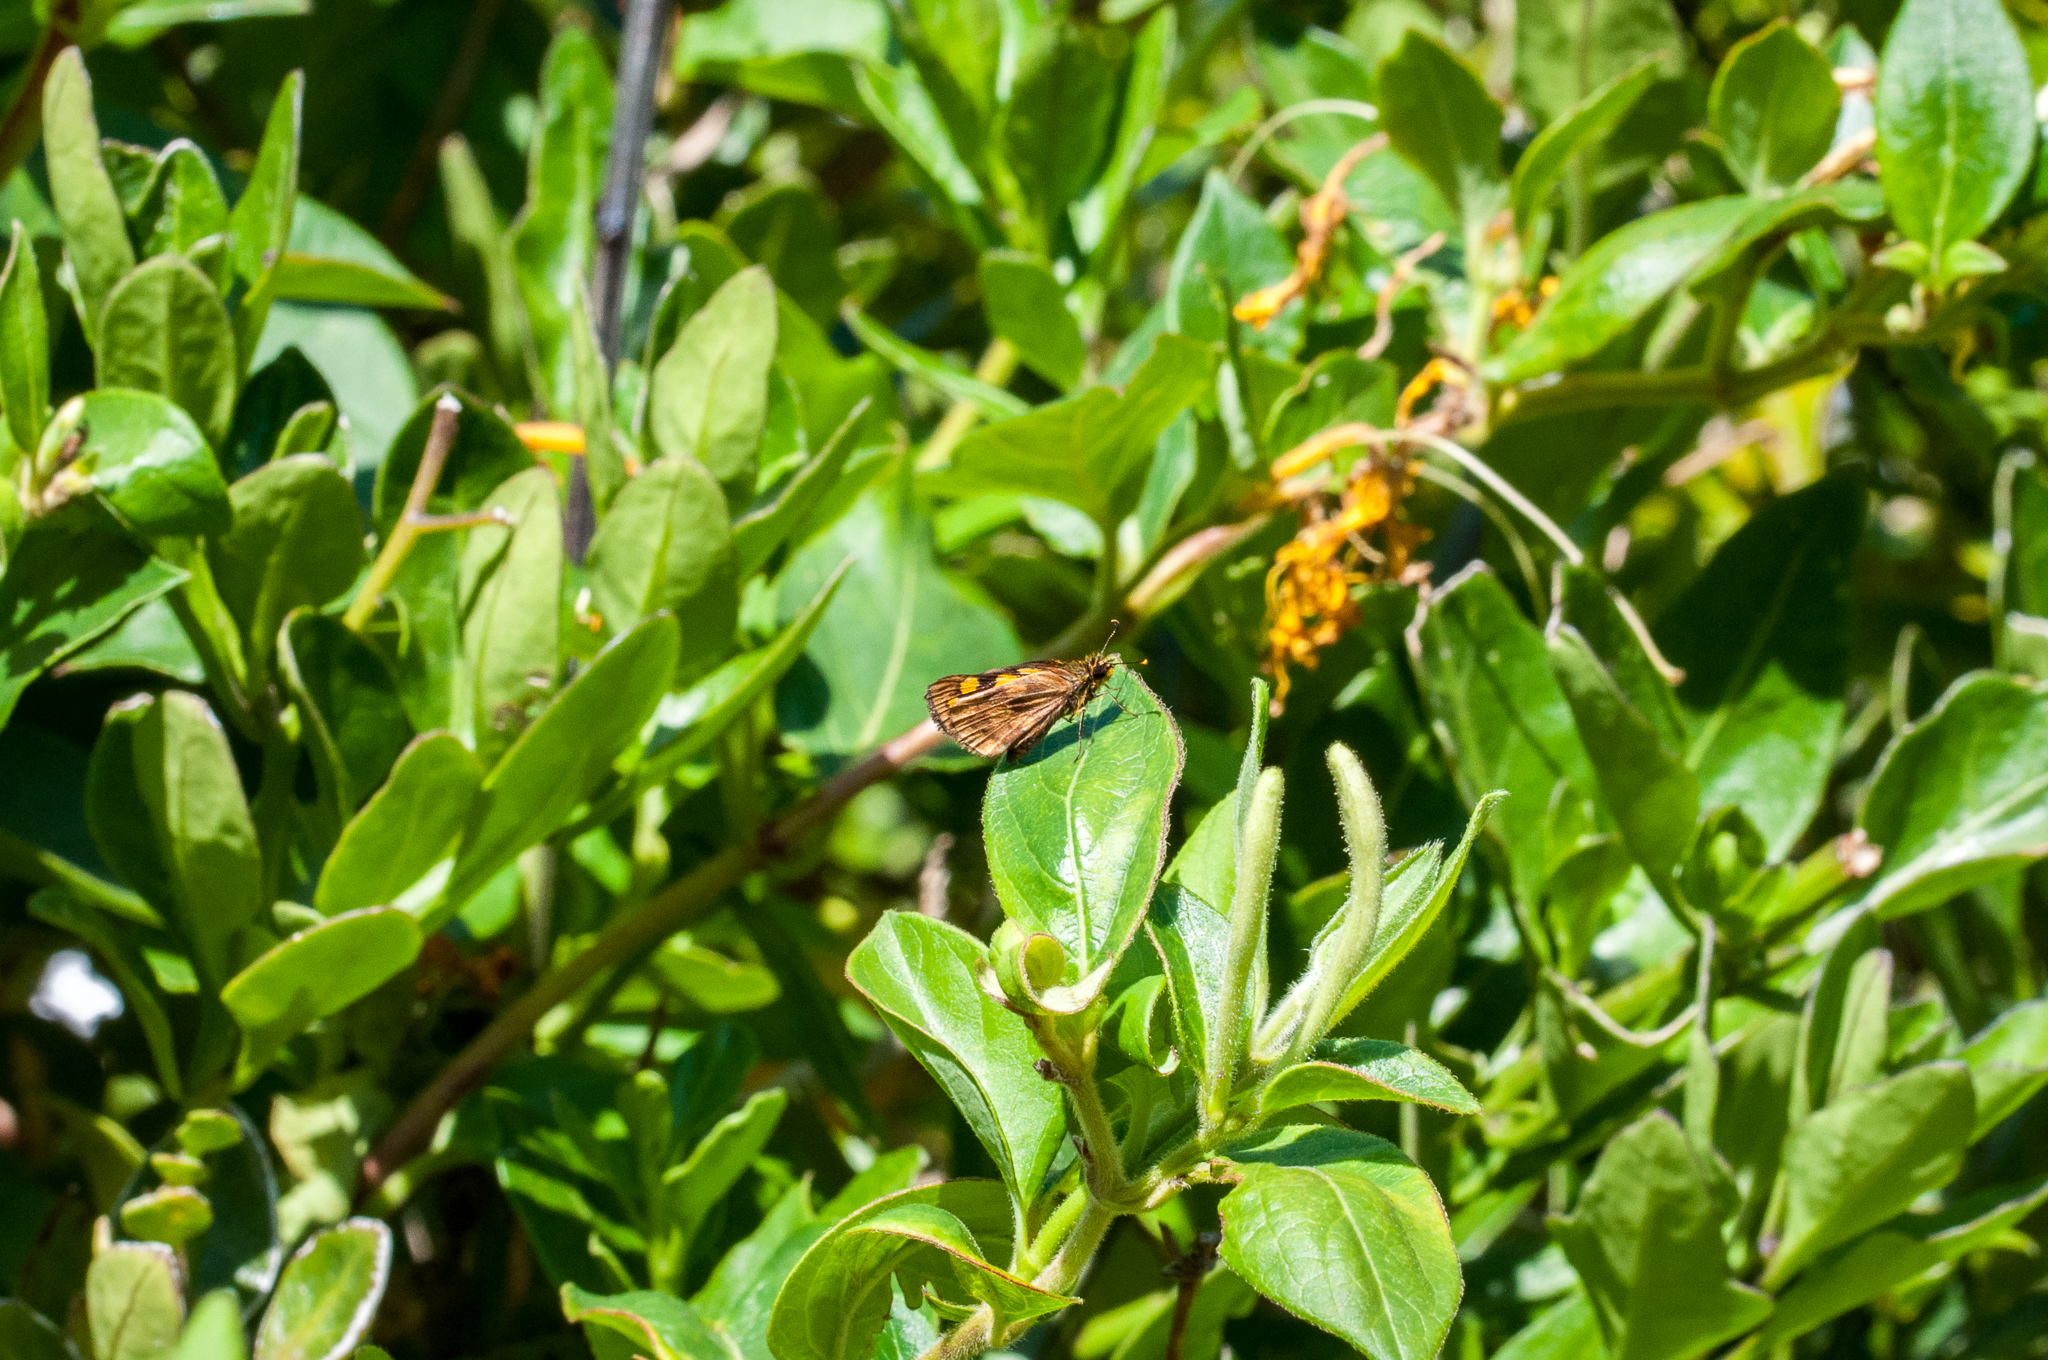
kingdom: Animalia
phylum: Arthropoda
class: Insecta
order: Lepidoptera
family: Hesperiidae
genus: Metisella
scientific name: Metisella metis
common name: Western gold-spotted sylph
